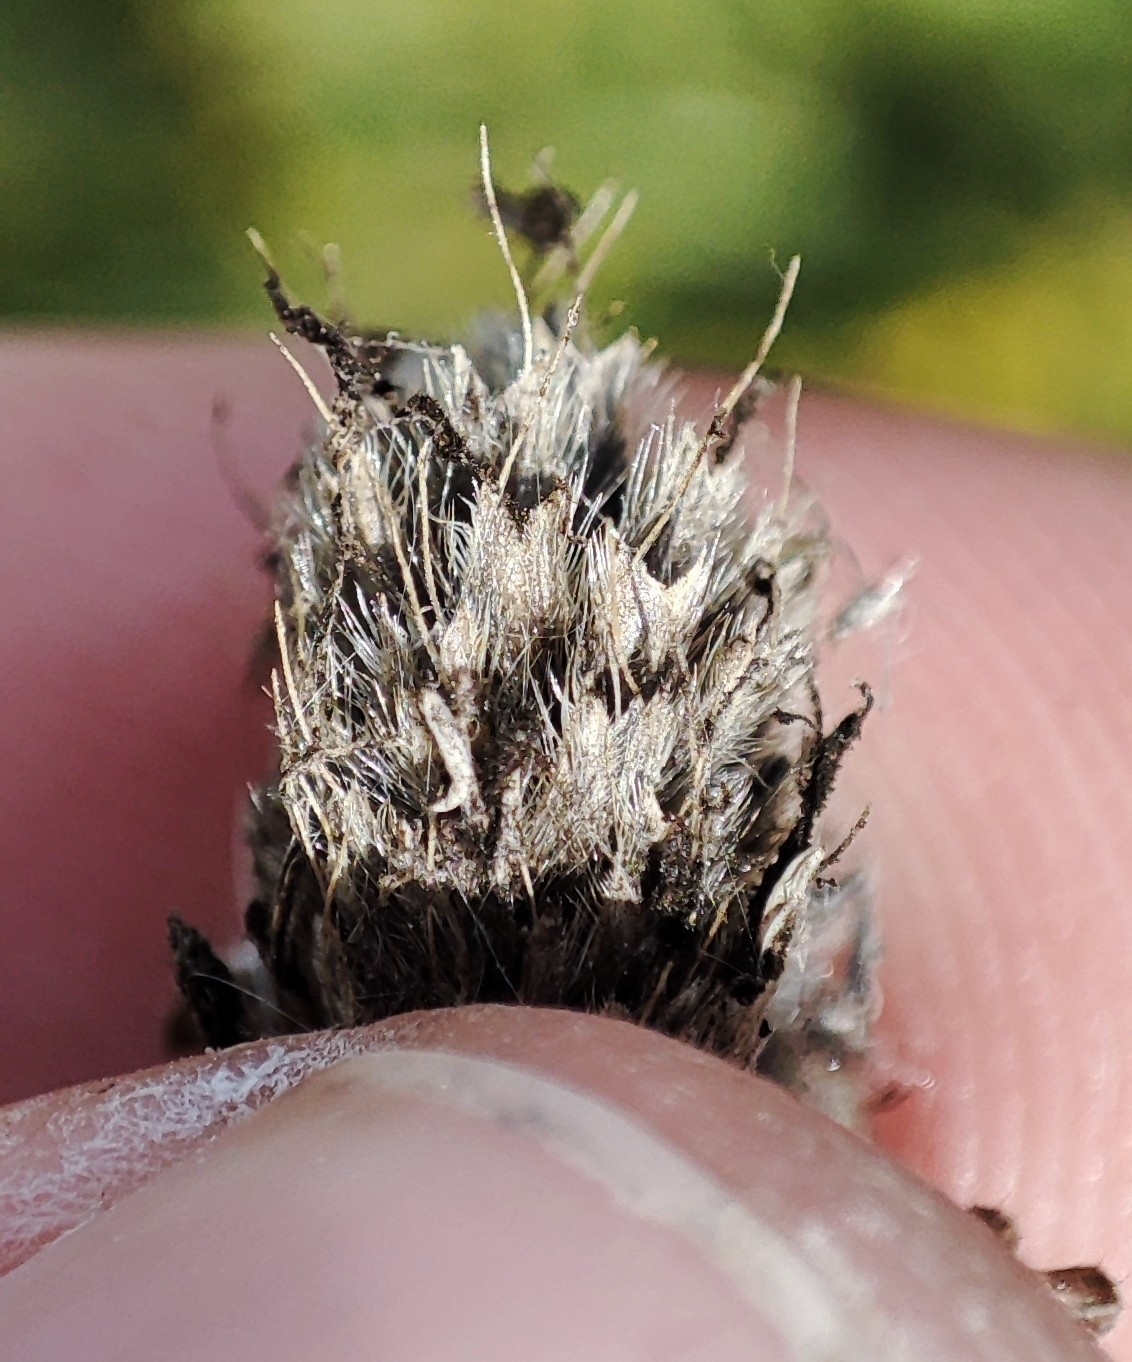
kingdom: Plantae
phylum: Tracheophyta
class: Liliopsida
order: Poales
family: Poaceae
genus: Alopecurus
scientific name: Alopecurus arundinaceus
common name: Creeping meadow foxtail
